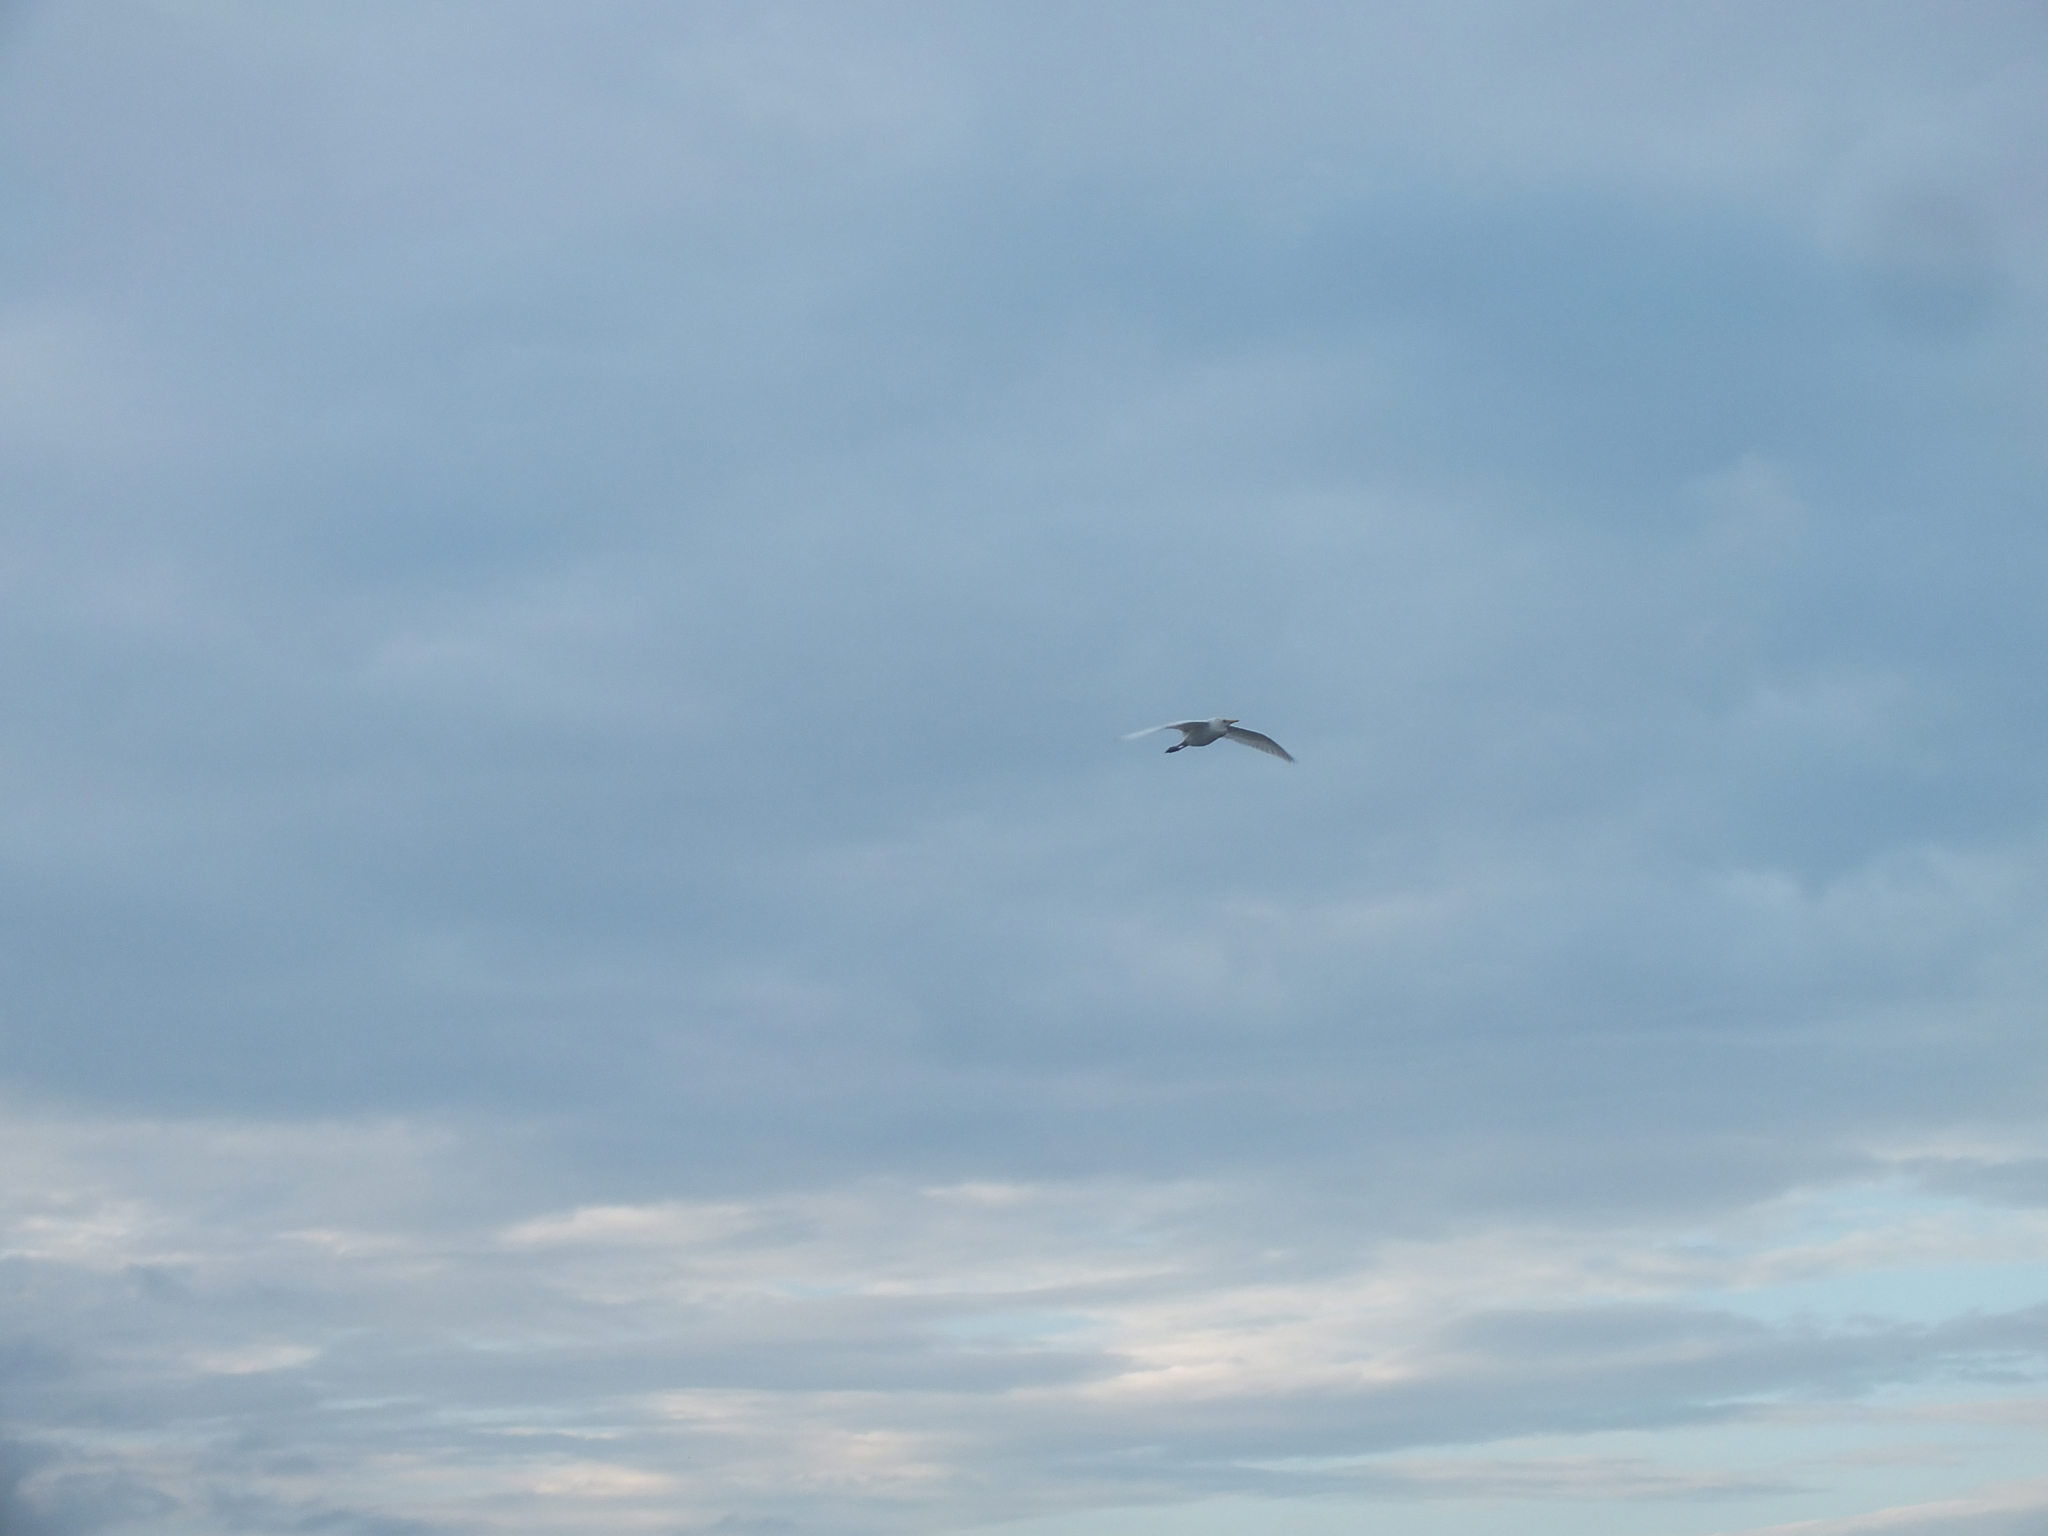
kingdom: Animalia
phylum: Chordata
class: Aves
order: Pelecaniformes
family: Ardeidae
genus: Bubulcus
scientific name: Bubulcus ibis
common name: Cattle egret
